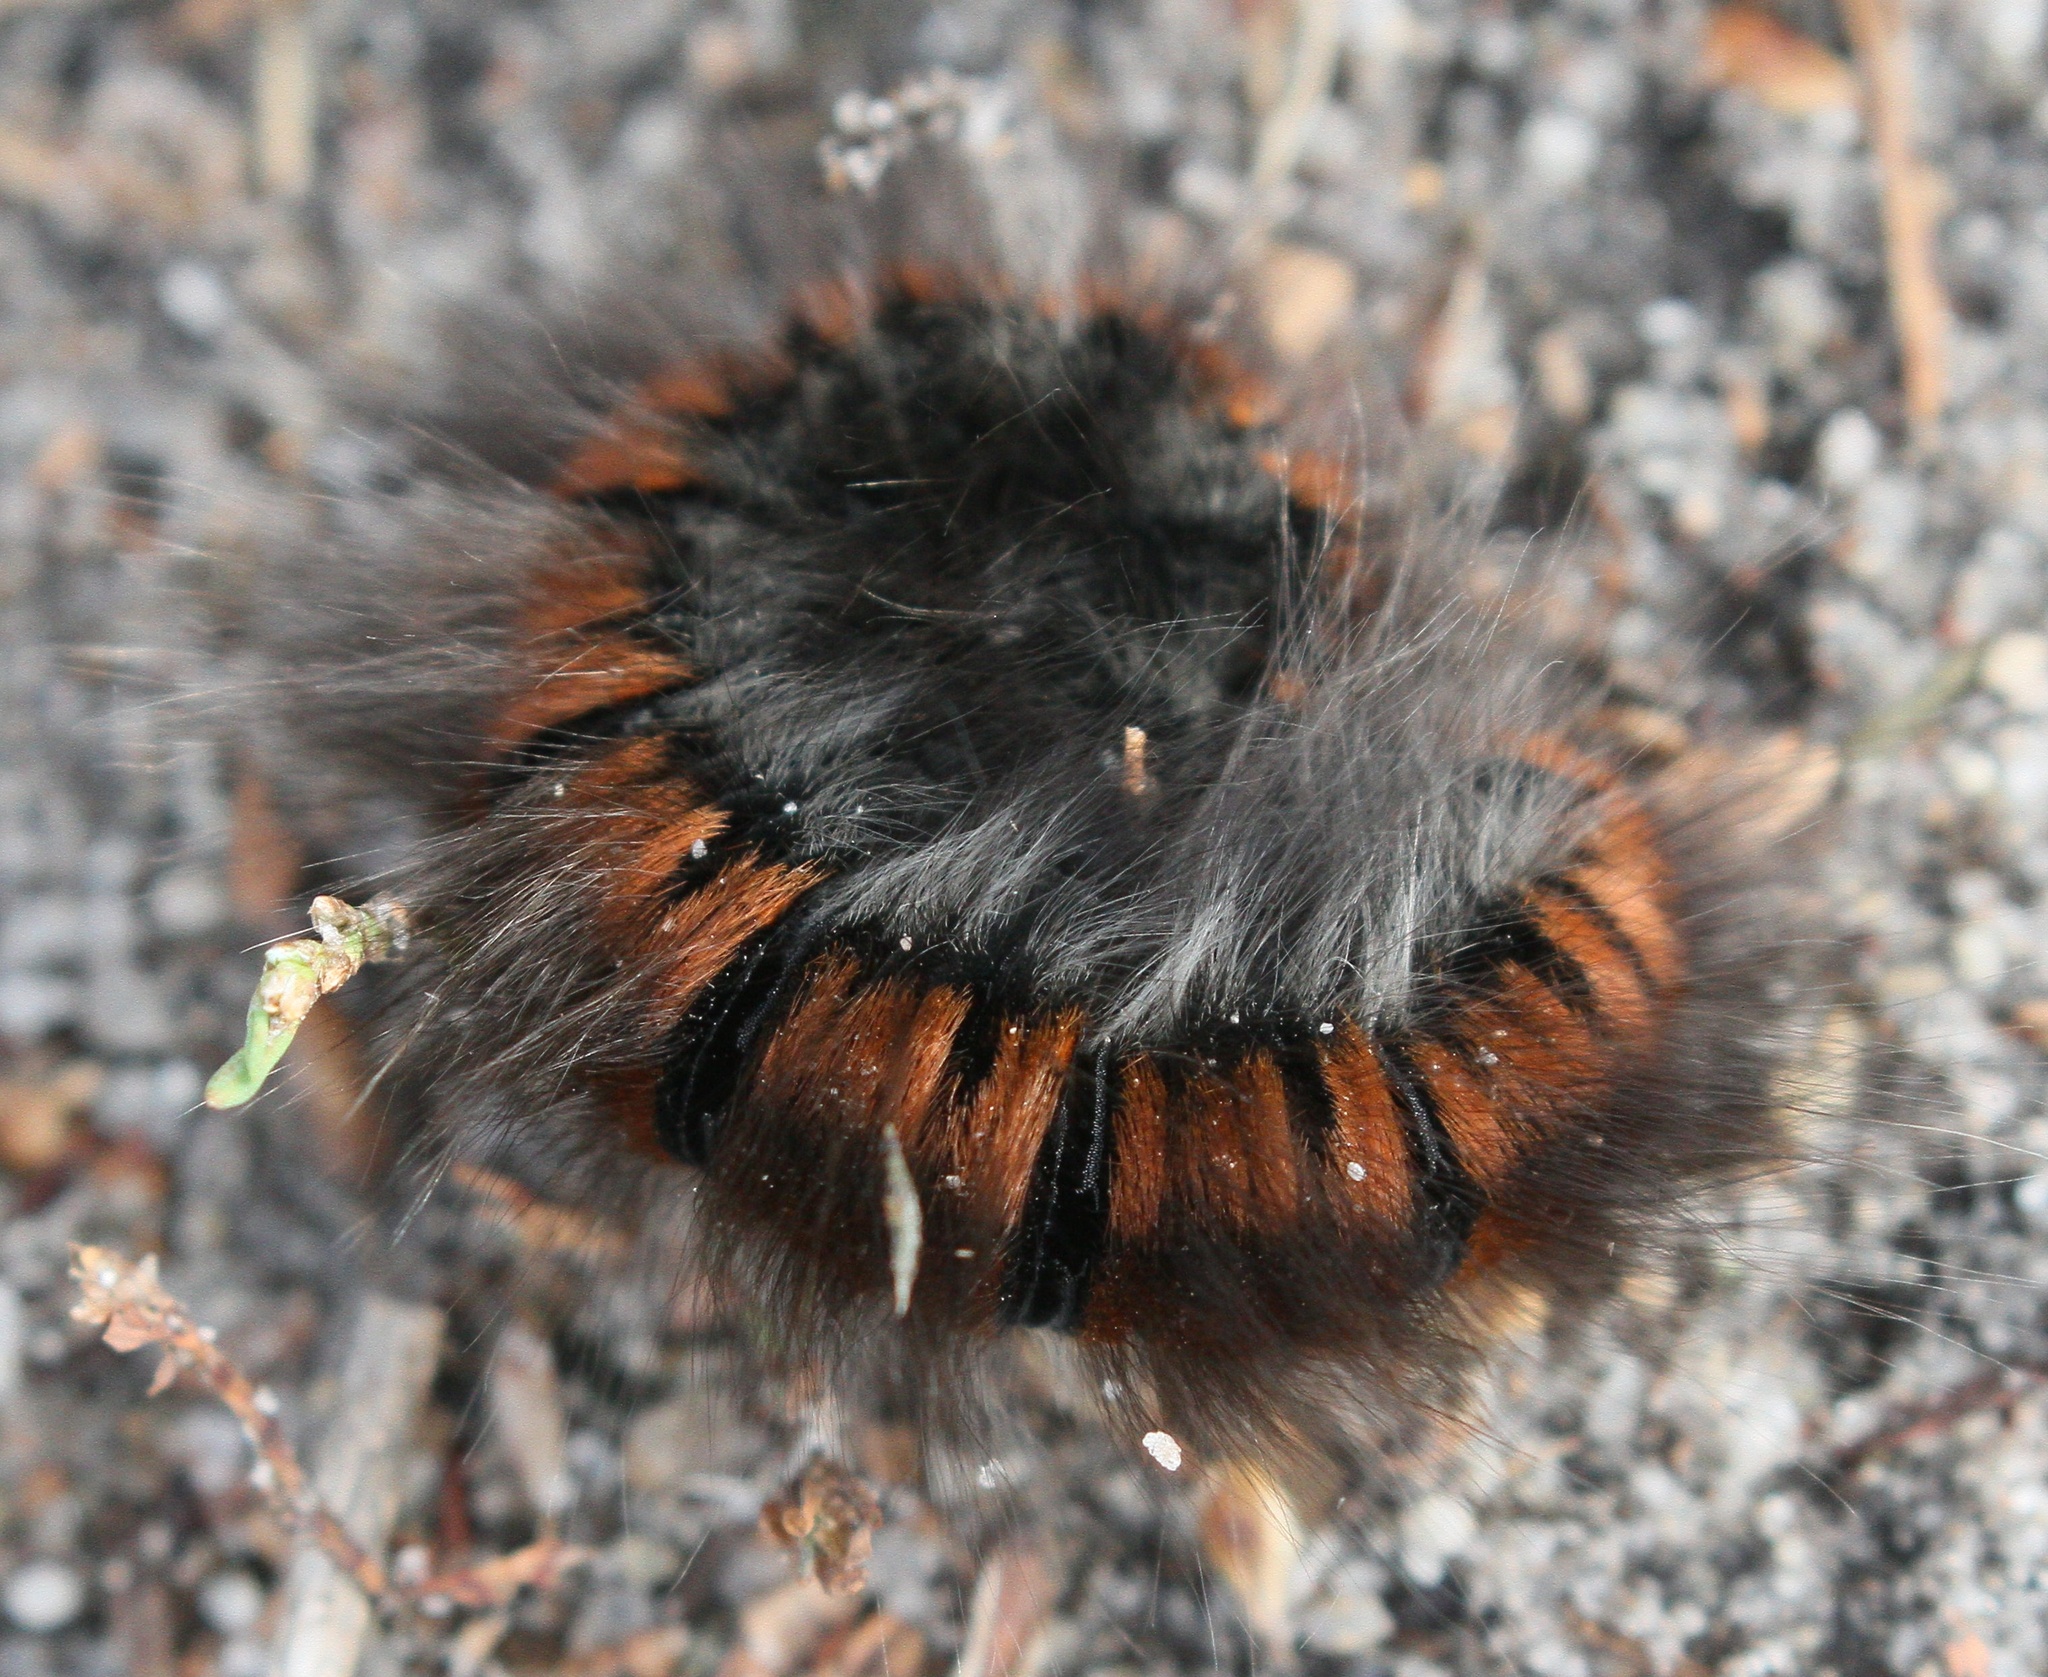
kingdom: Animalia
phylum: Arthropoda
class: Insecta
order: Lepidoptera
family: Lasiocampidae
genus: Macrothylacia
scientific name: Macrothylacia rubi
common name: Fox moth
